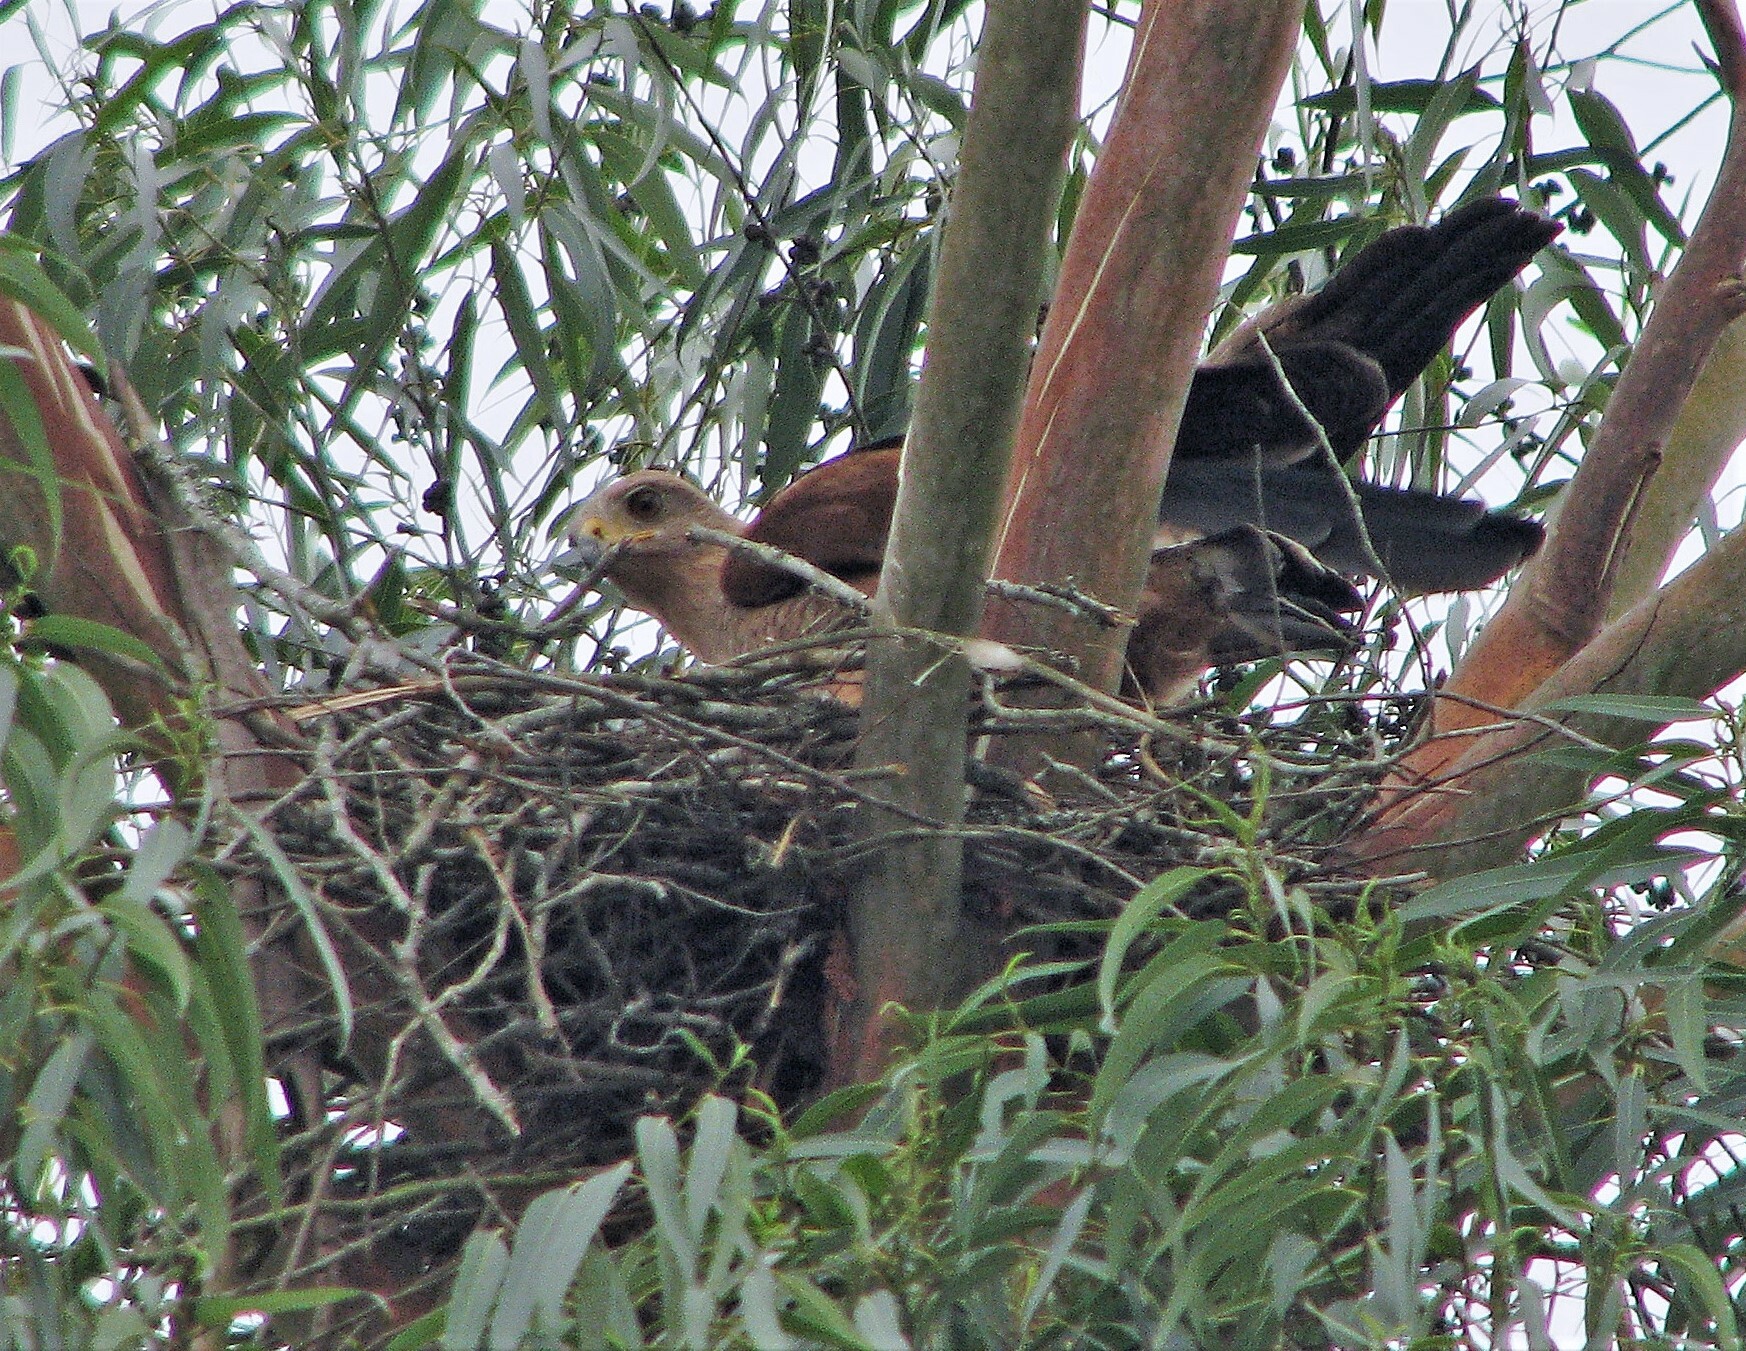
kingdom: Animalia
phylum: Chordata
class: Aves
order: Accipitriformes
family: Accipitridae
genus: Buteogallus
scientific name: Buteogallus meridionalis
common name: Savanna hawk
